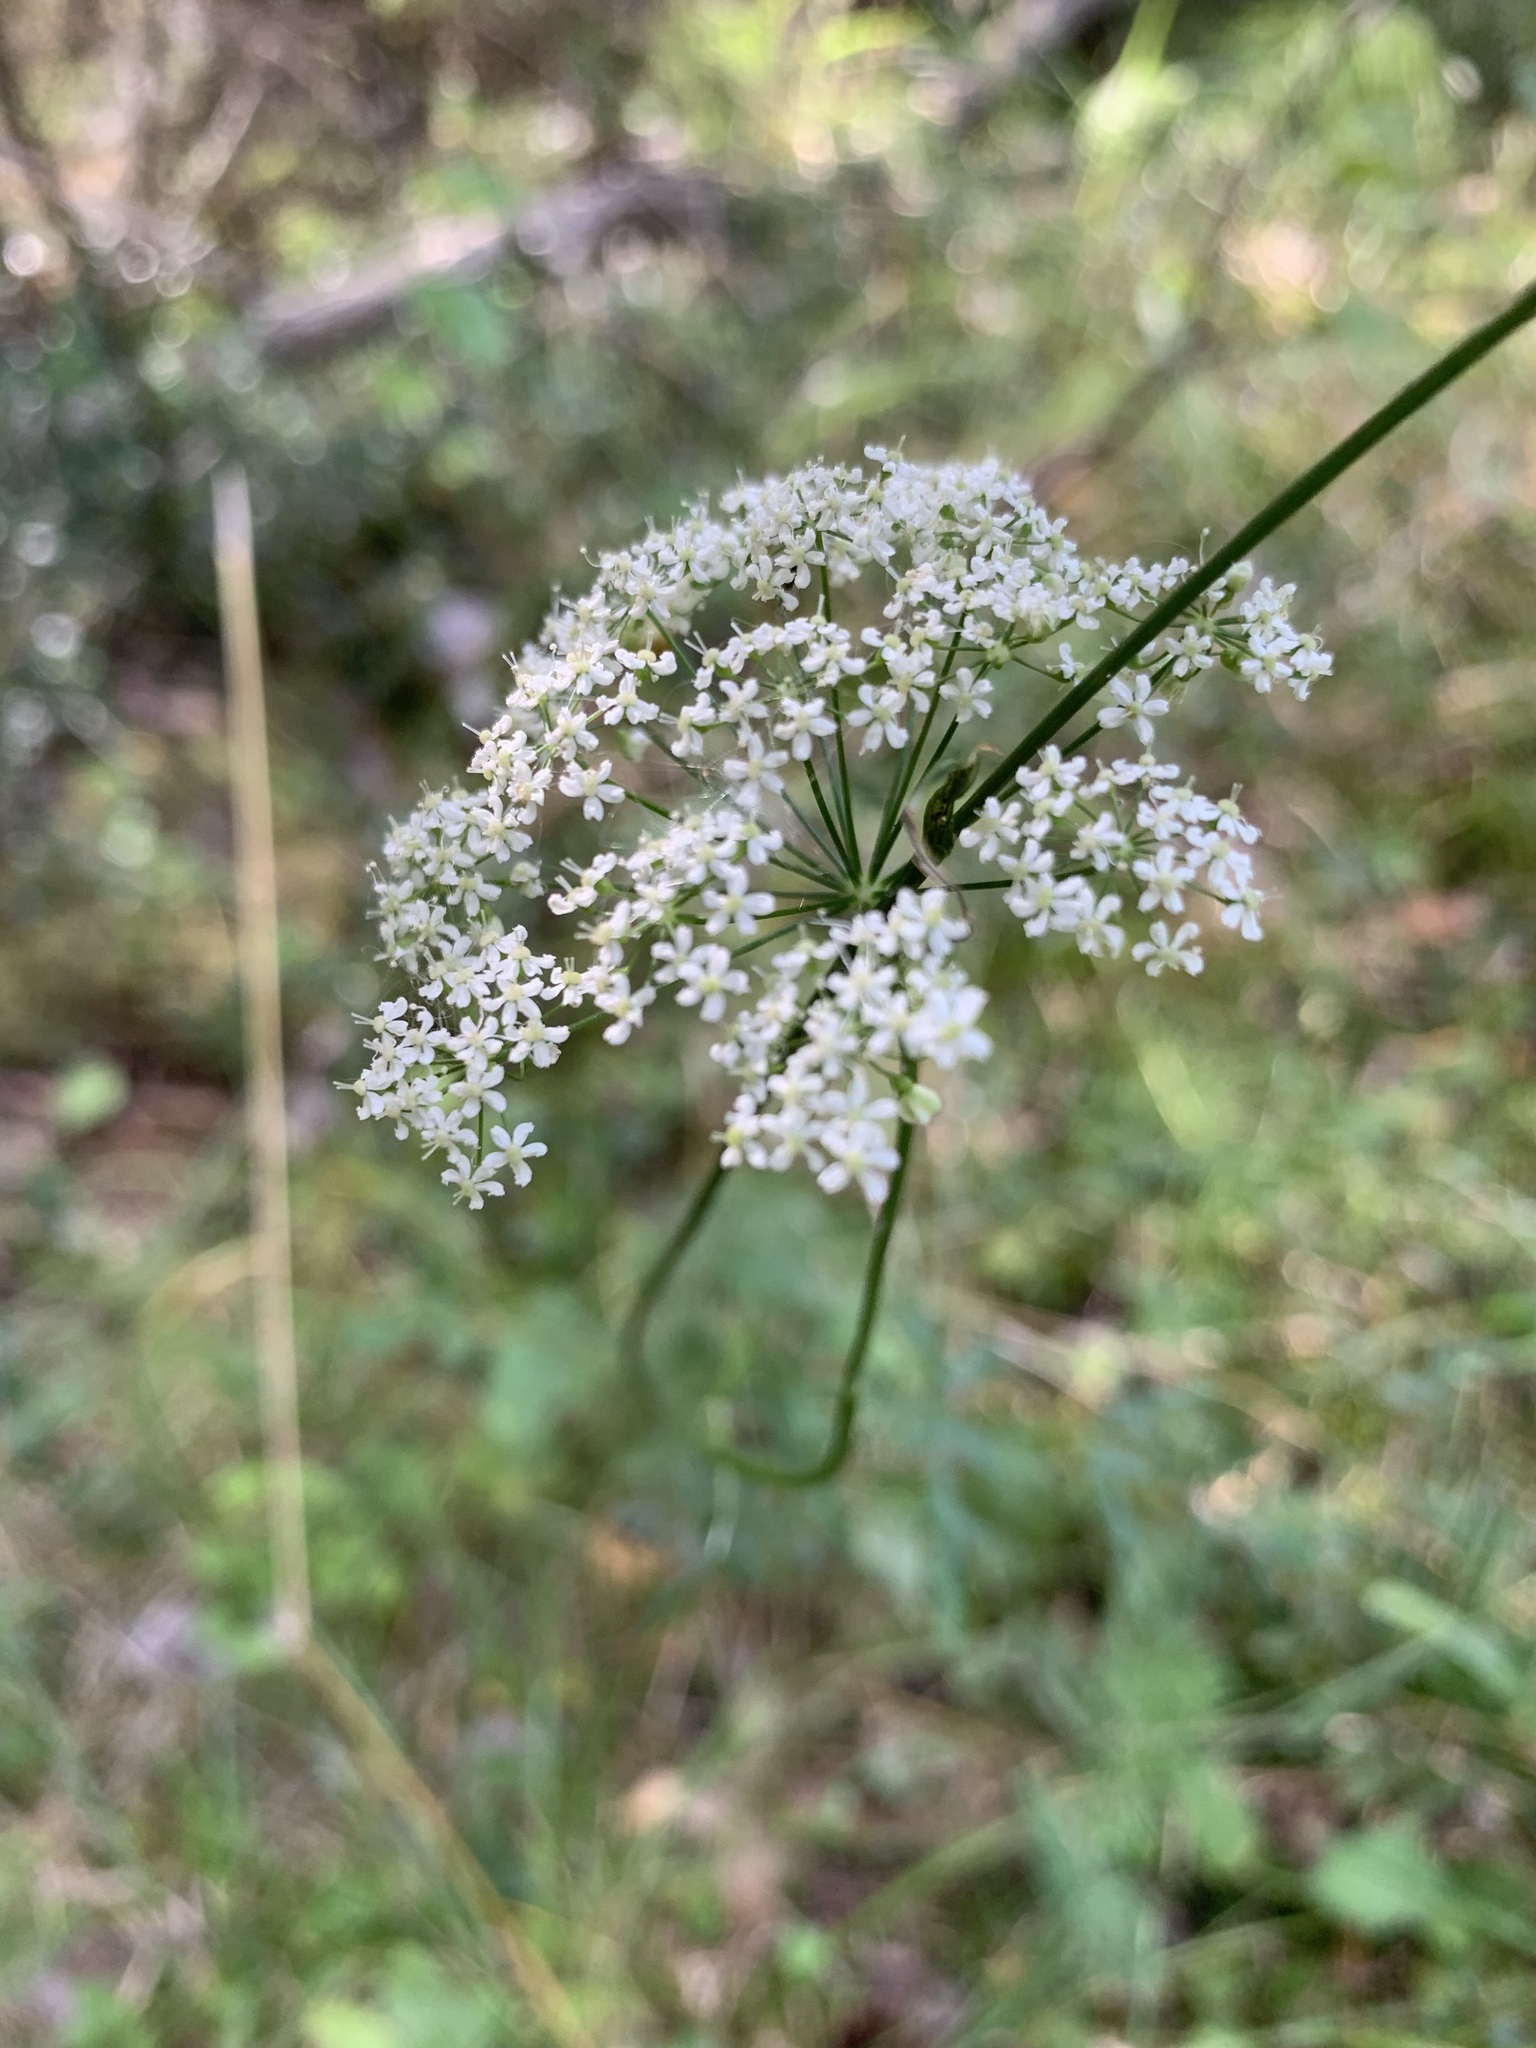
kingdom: Plantae
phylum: Tracheophyta
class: Magnoliopsida
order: Apiales
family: Apiaceae
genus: Pimpinella
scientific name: Pimpinella saxifraga
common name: Burnet-saxifrage
